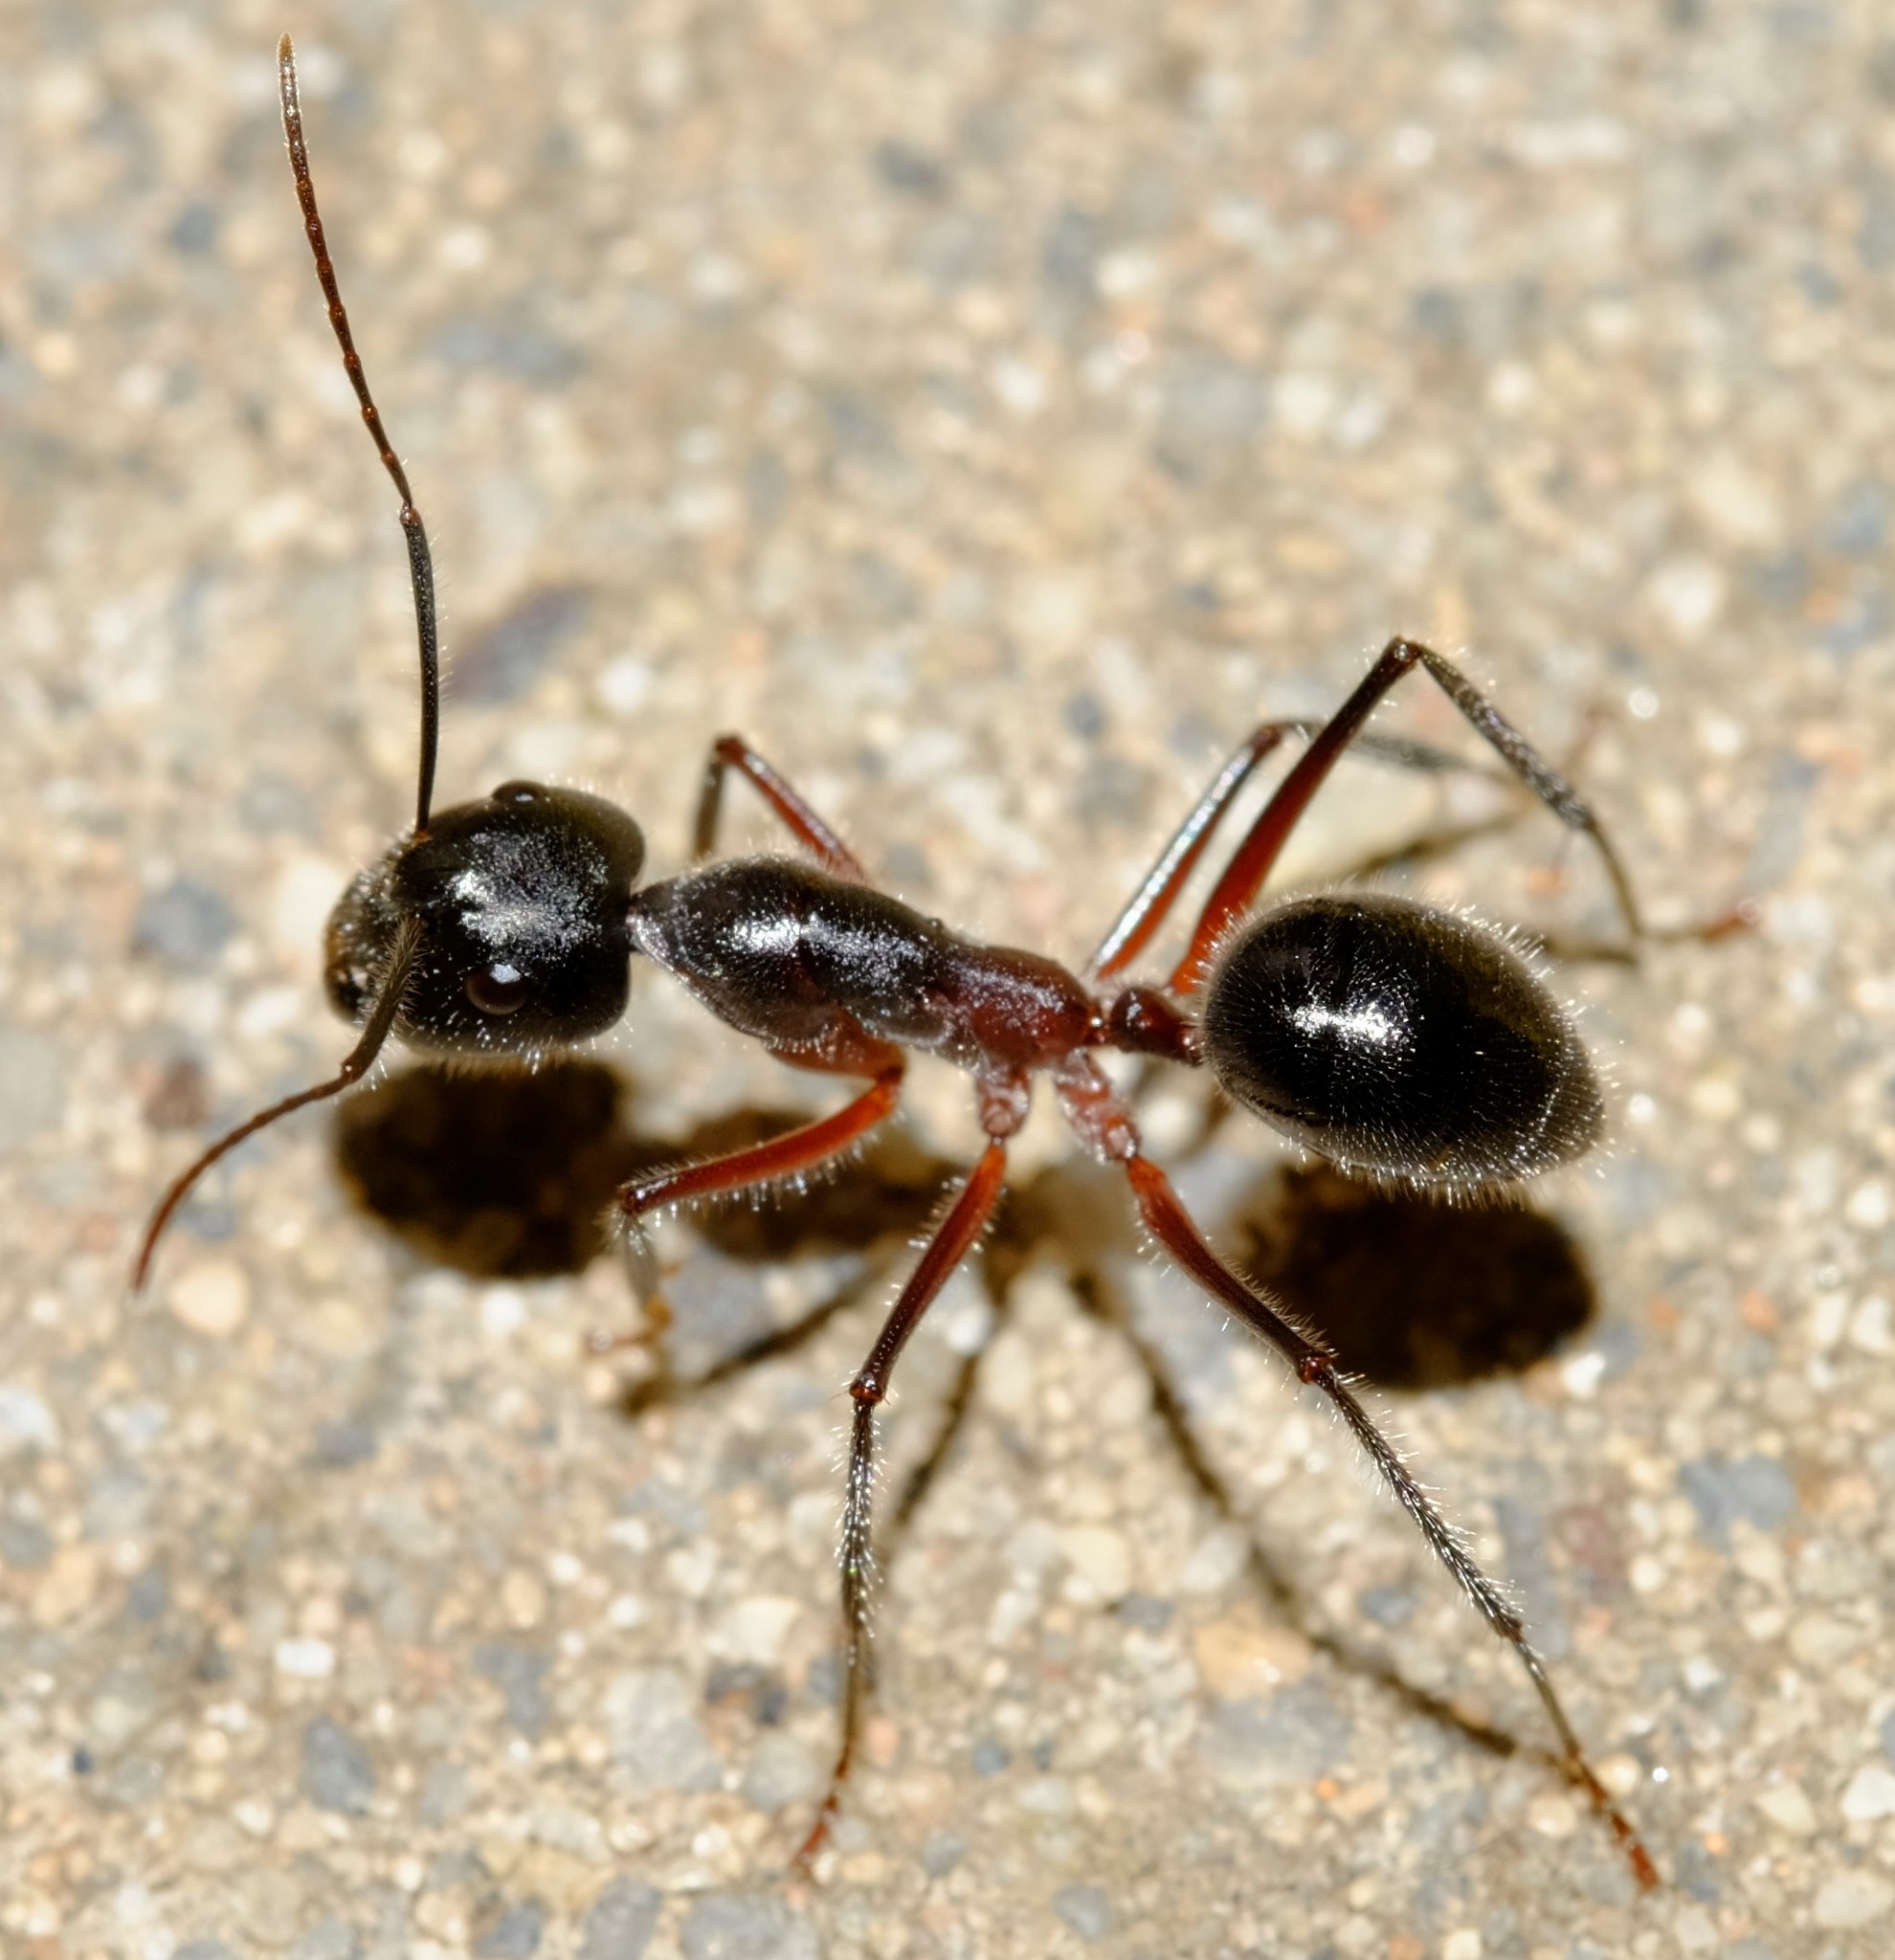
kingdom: Animalia
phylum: Arthropoda
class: Insecta
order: Hymenoptera
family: Formicidae
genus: Camponotus
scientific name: Camponotus intrepidus
